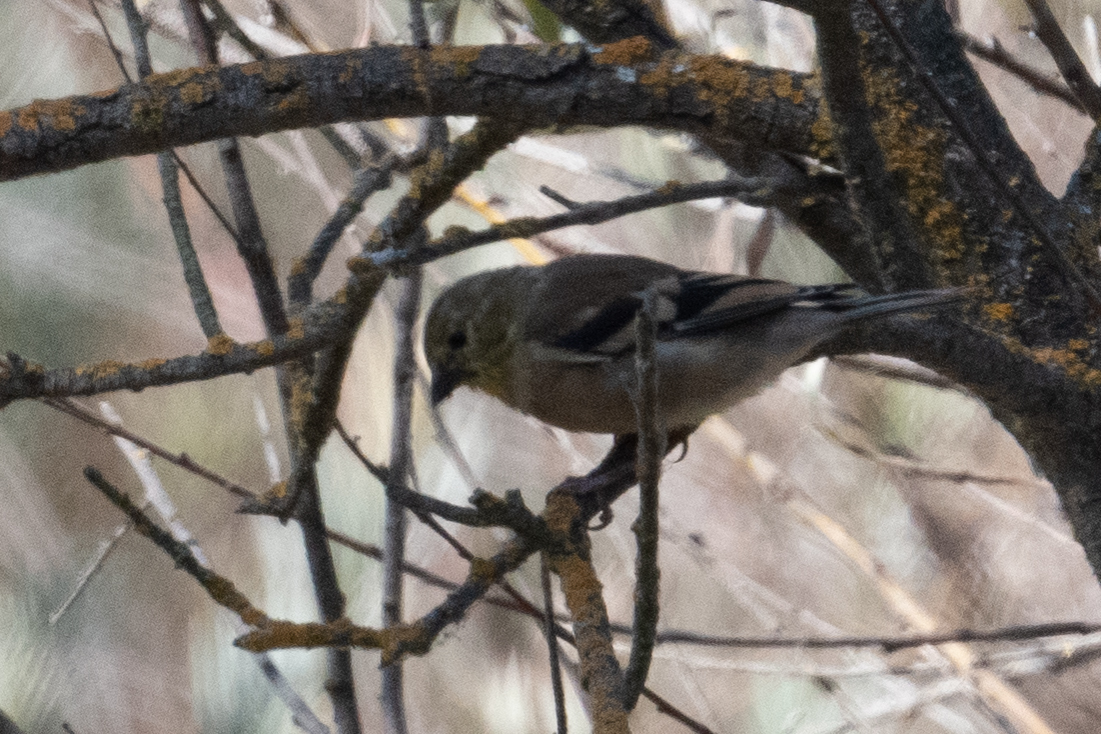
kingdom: Animalia
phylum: Chordata
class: Aves
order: Passeriformes
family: Fringillidae
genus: Spinus
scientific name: Spinus tristis
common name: American goldfinch
